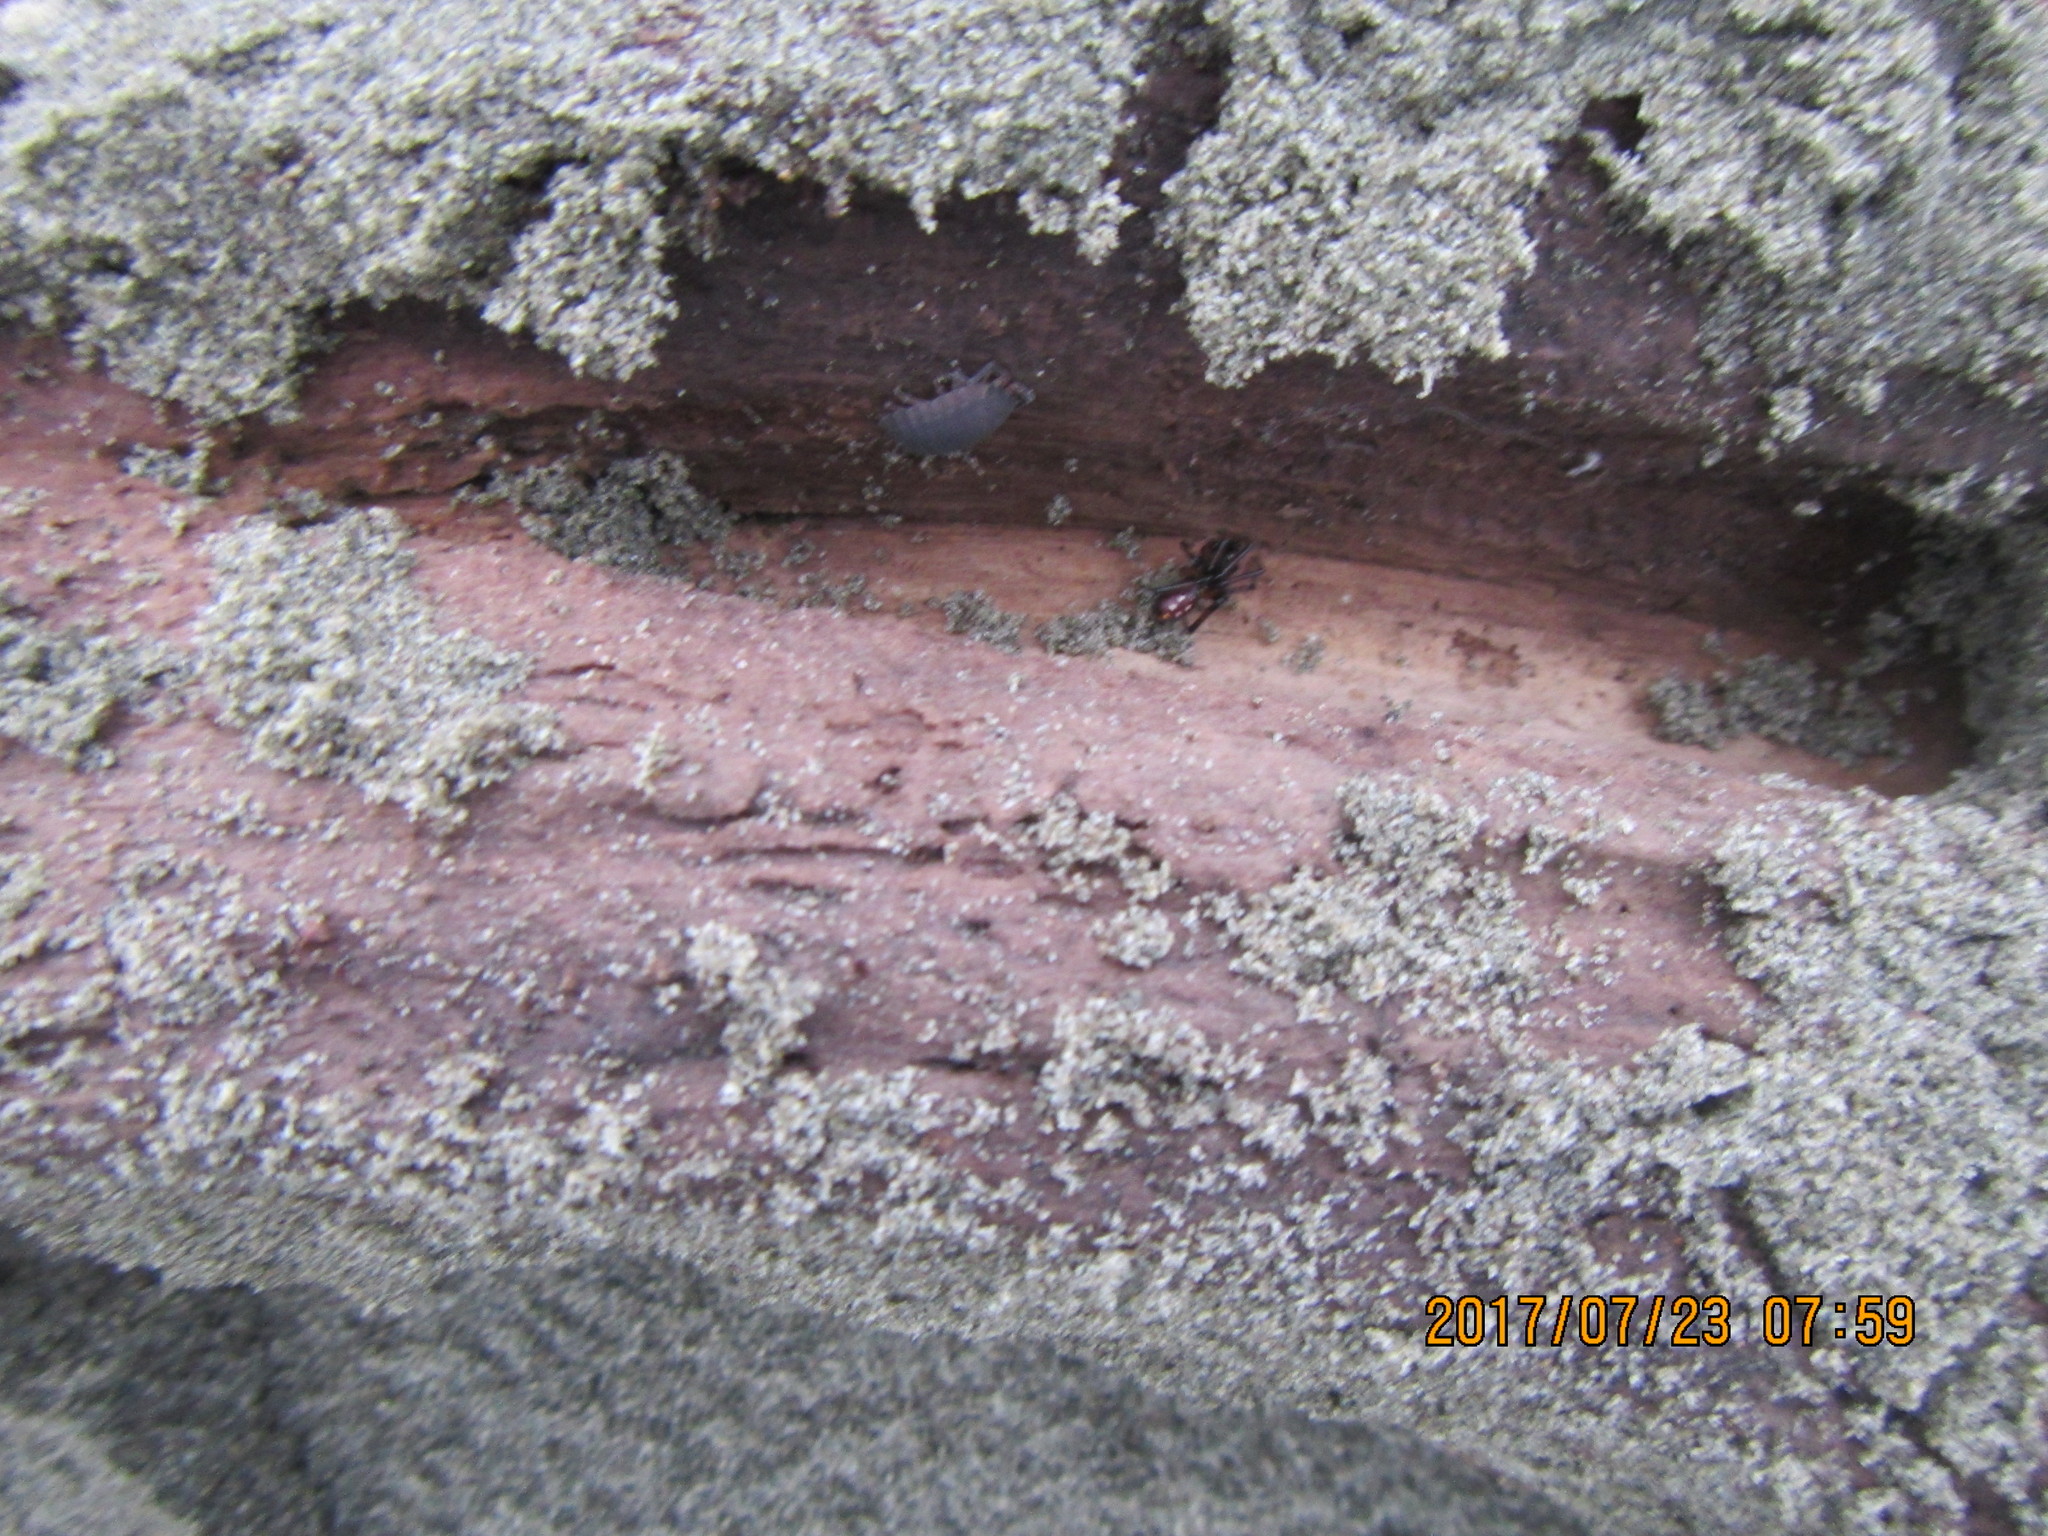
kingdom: Animalia
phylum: Arthropoda
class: Arachnida
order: Araneae
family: Theridiidae
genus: Steatoda
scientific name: Steatoda capensis
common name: Cobweb weaver
